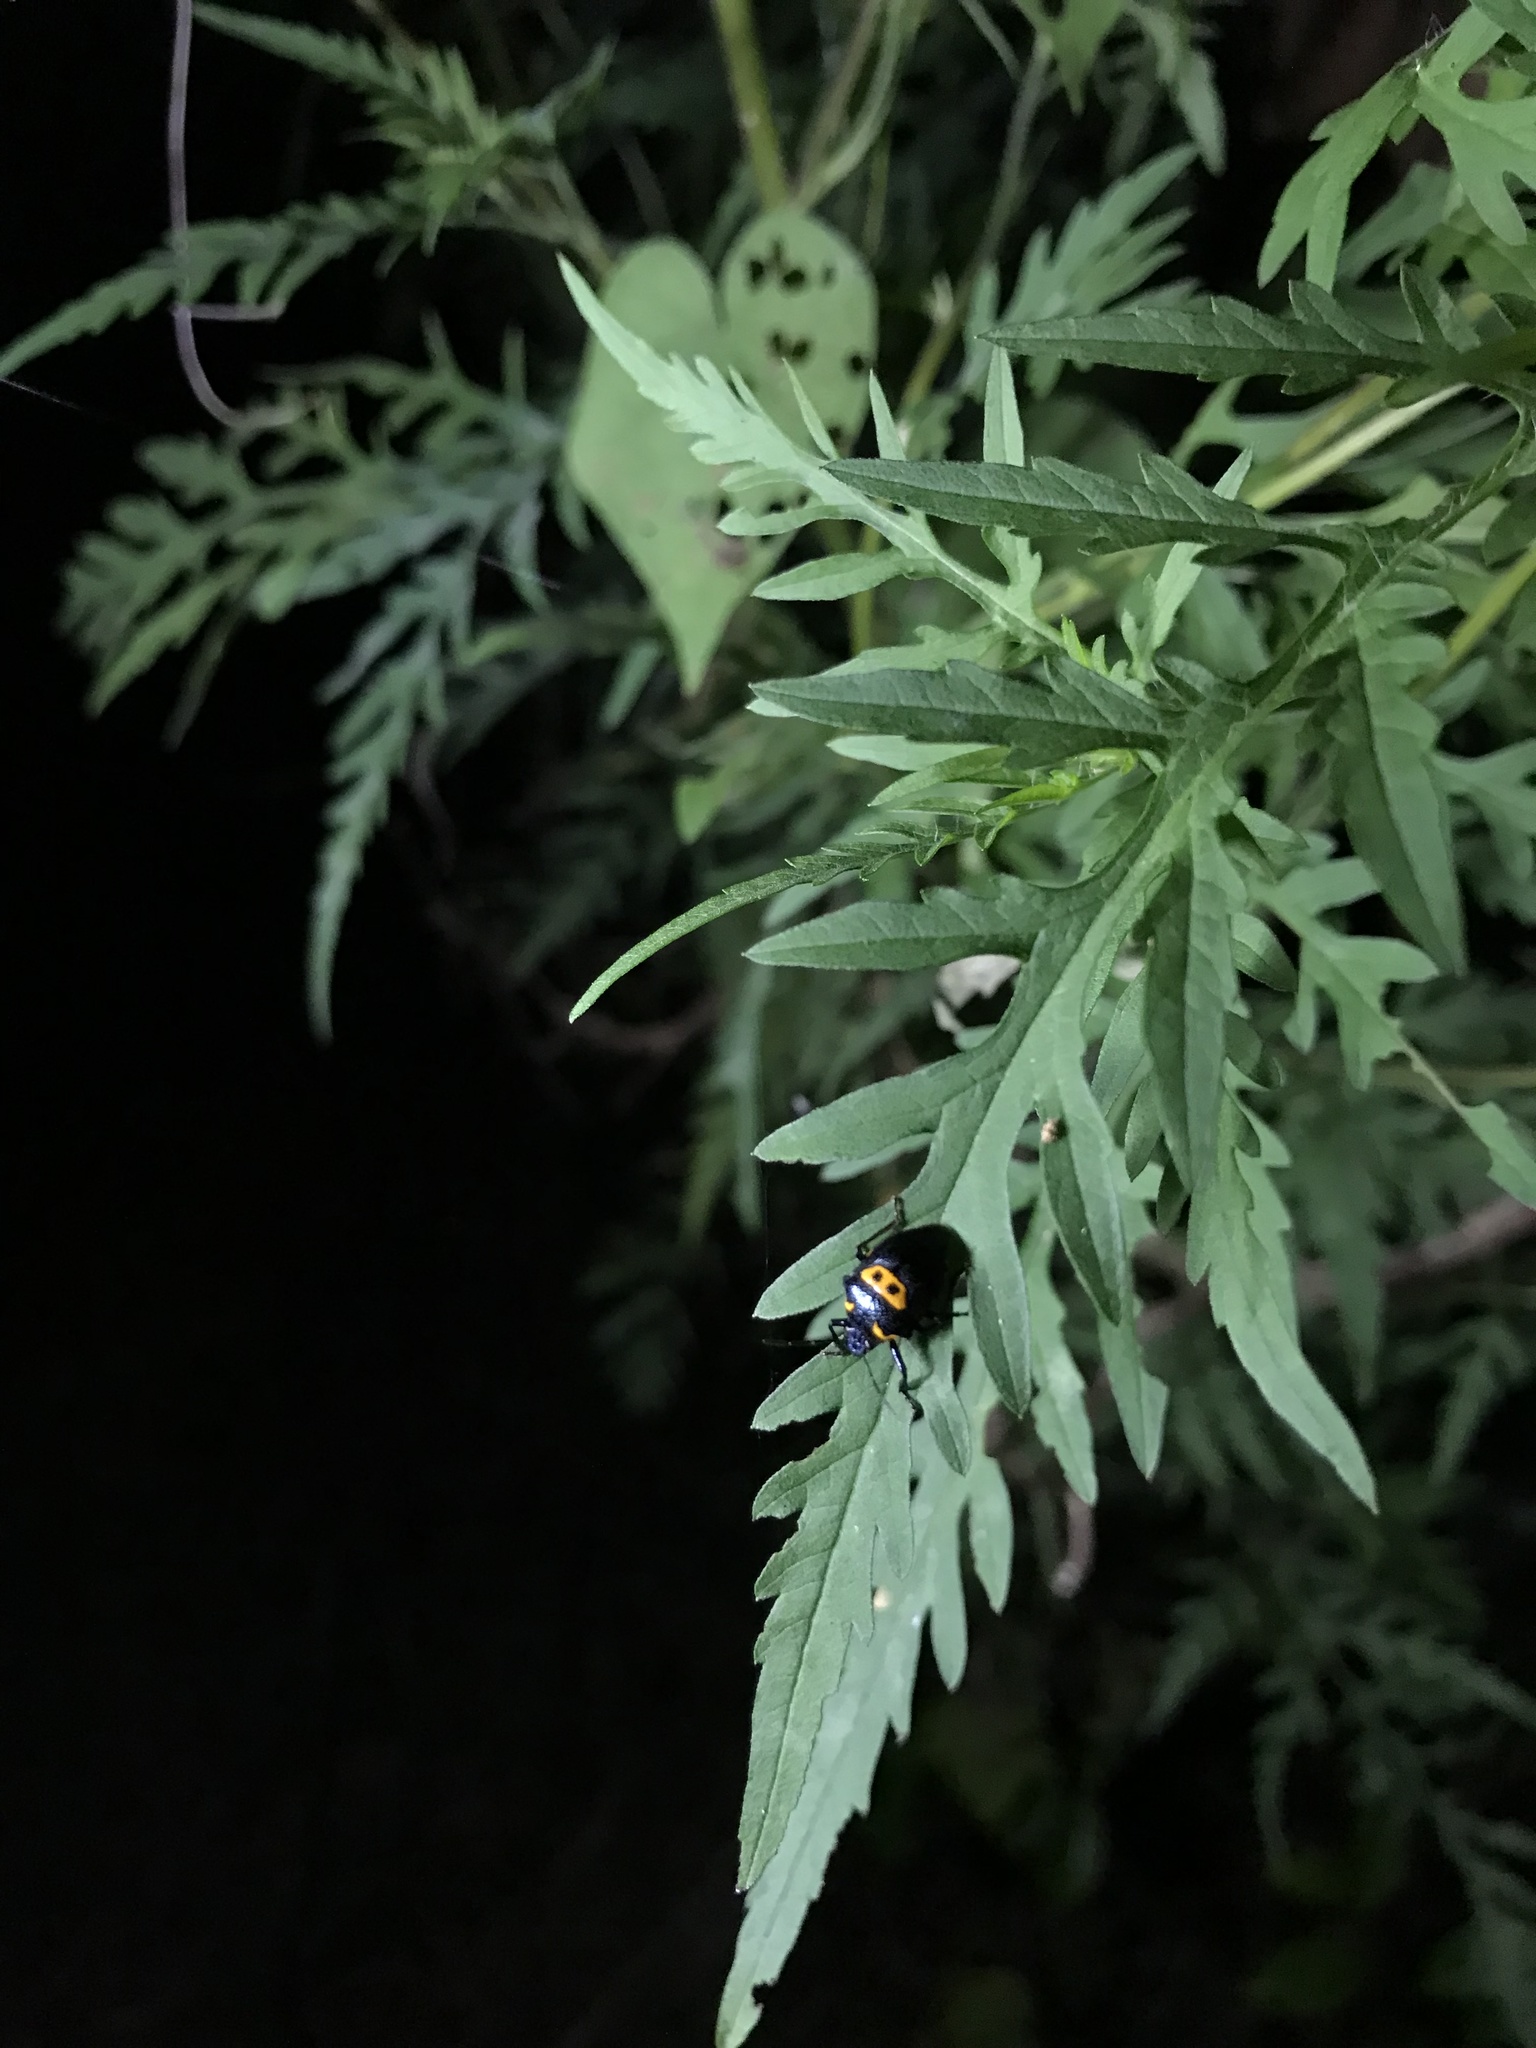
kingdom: Animalia
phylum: Arthropoda
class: Insecta
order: Hemiptera
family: Pentatomidae
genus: Stiretrus
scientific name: Stiretrus anchorago
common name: Anchor stink bug
